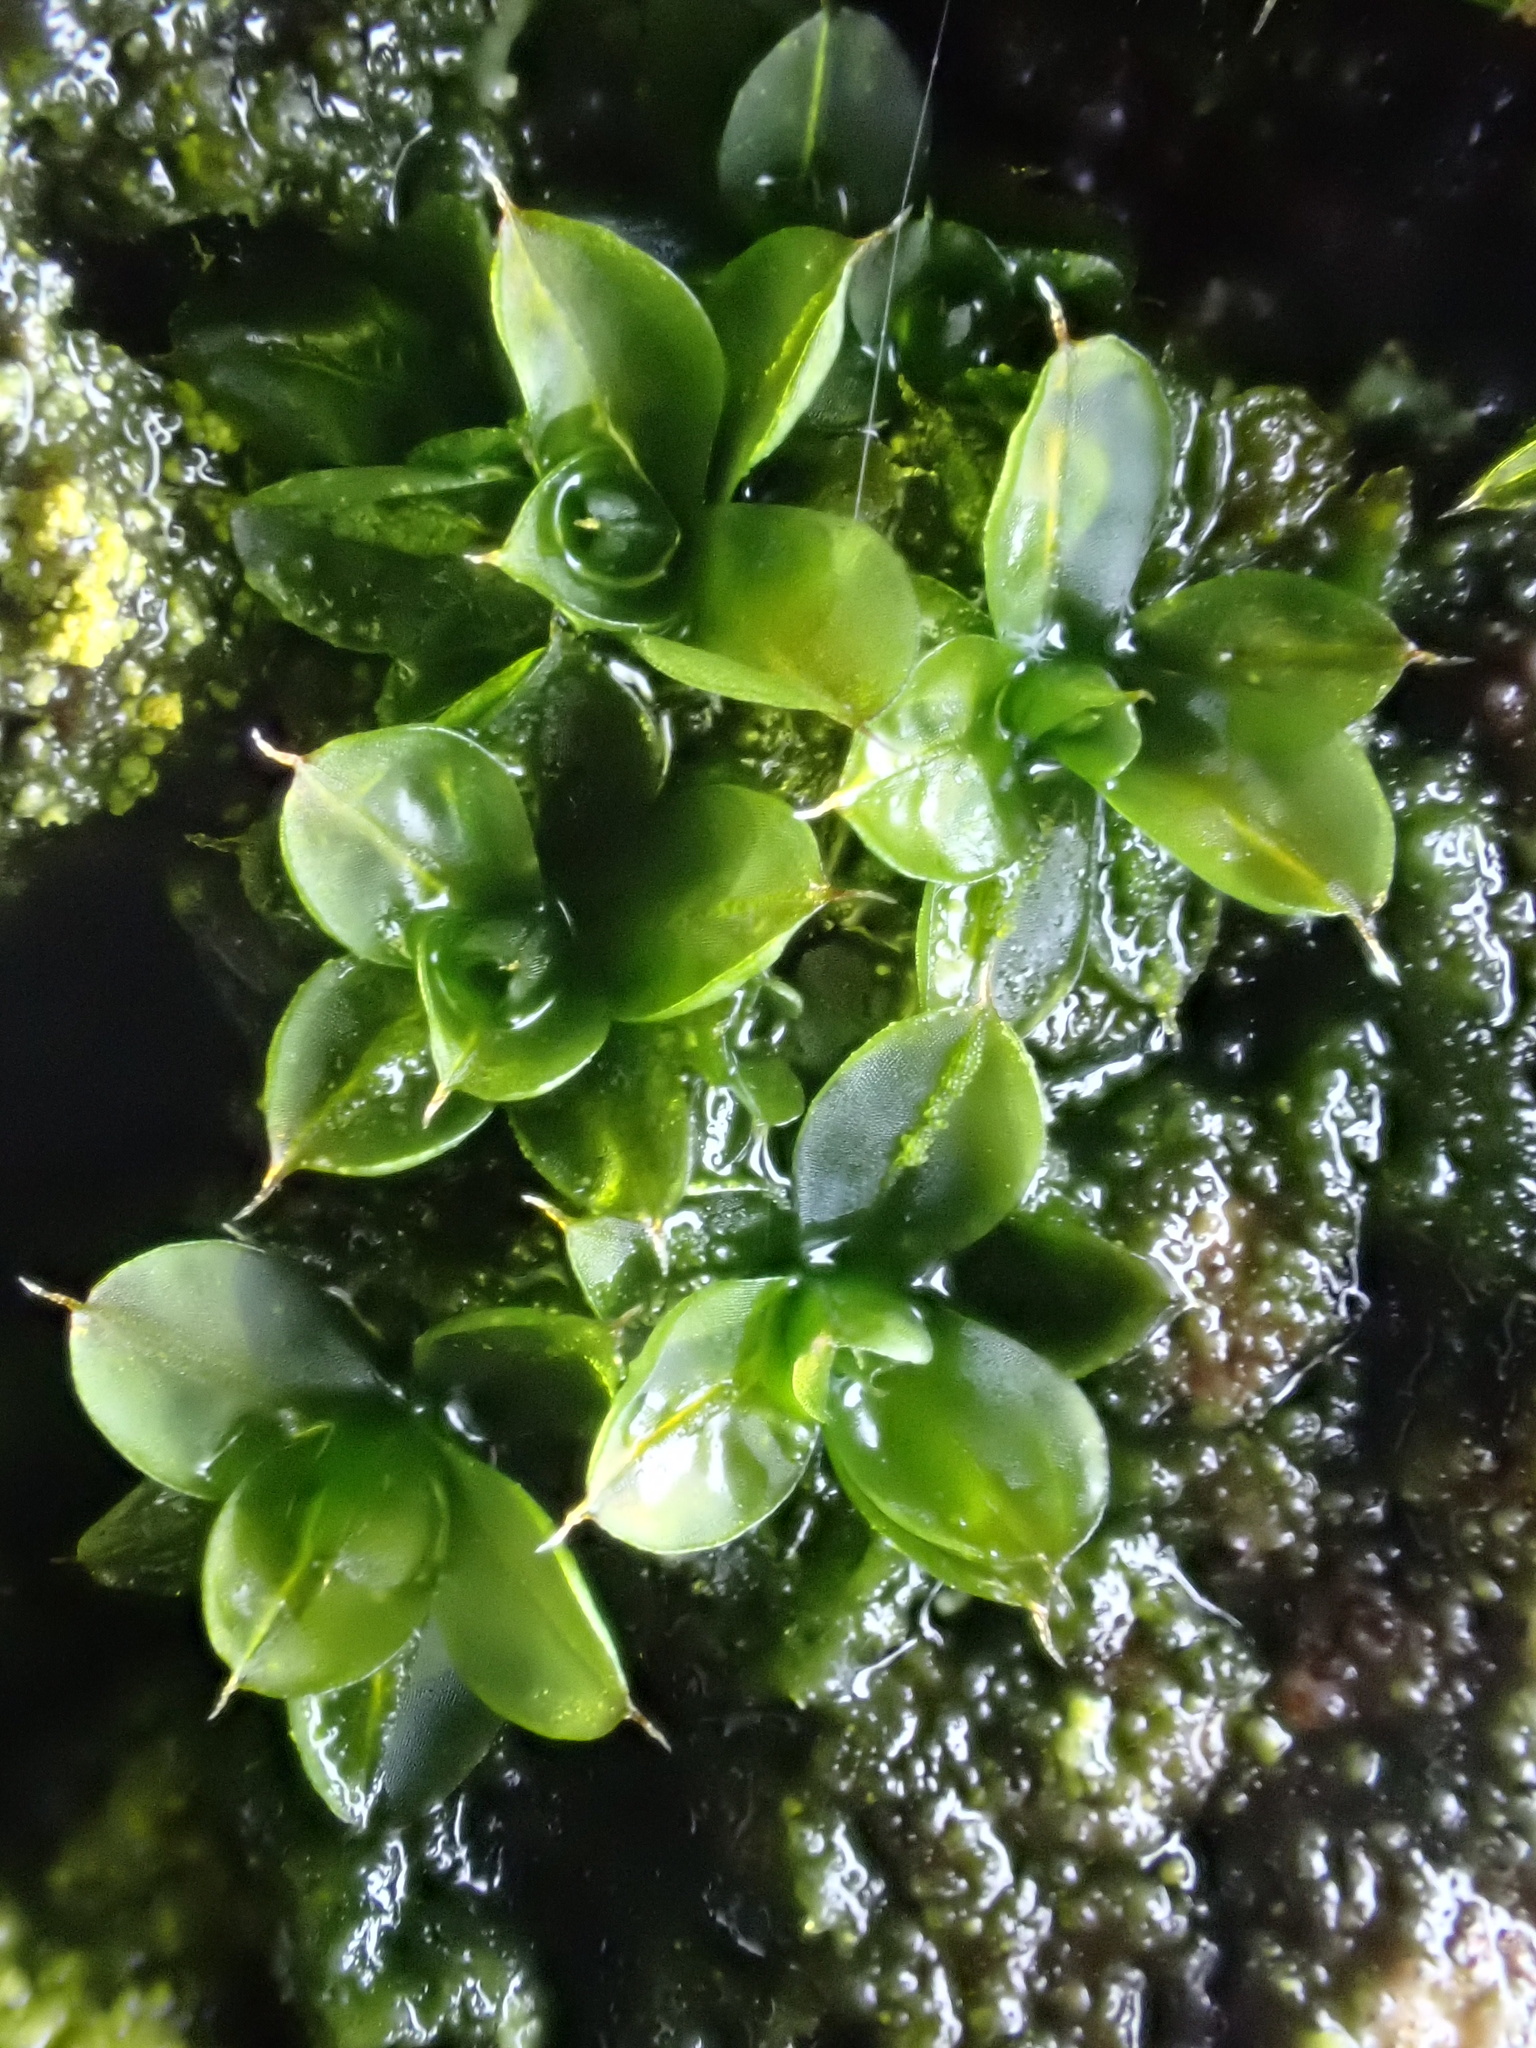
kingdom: Plantae
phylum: Bryophyta
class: Bryopsida
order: Pottiales
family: Pottiaceae
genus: Syntrichia
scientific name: Syntrichia papillosa
